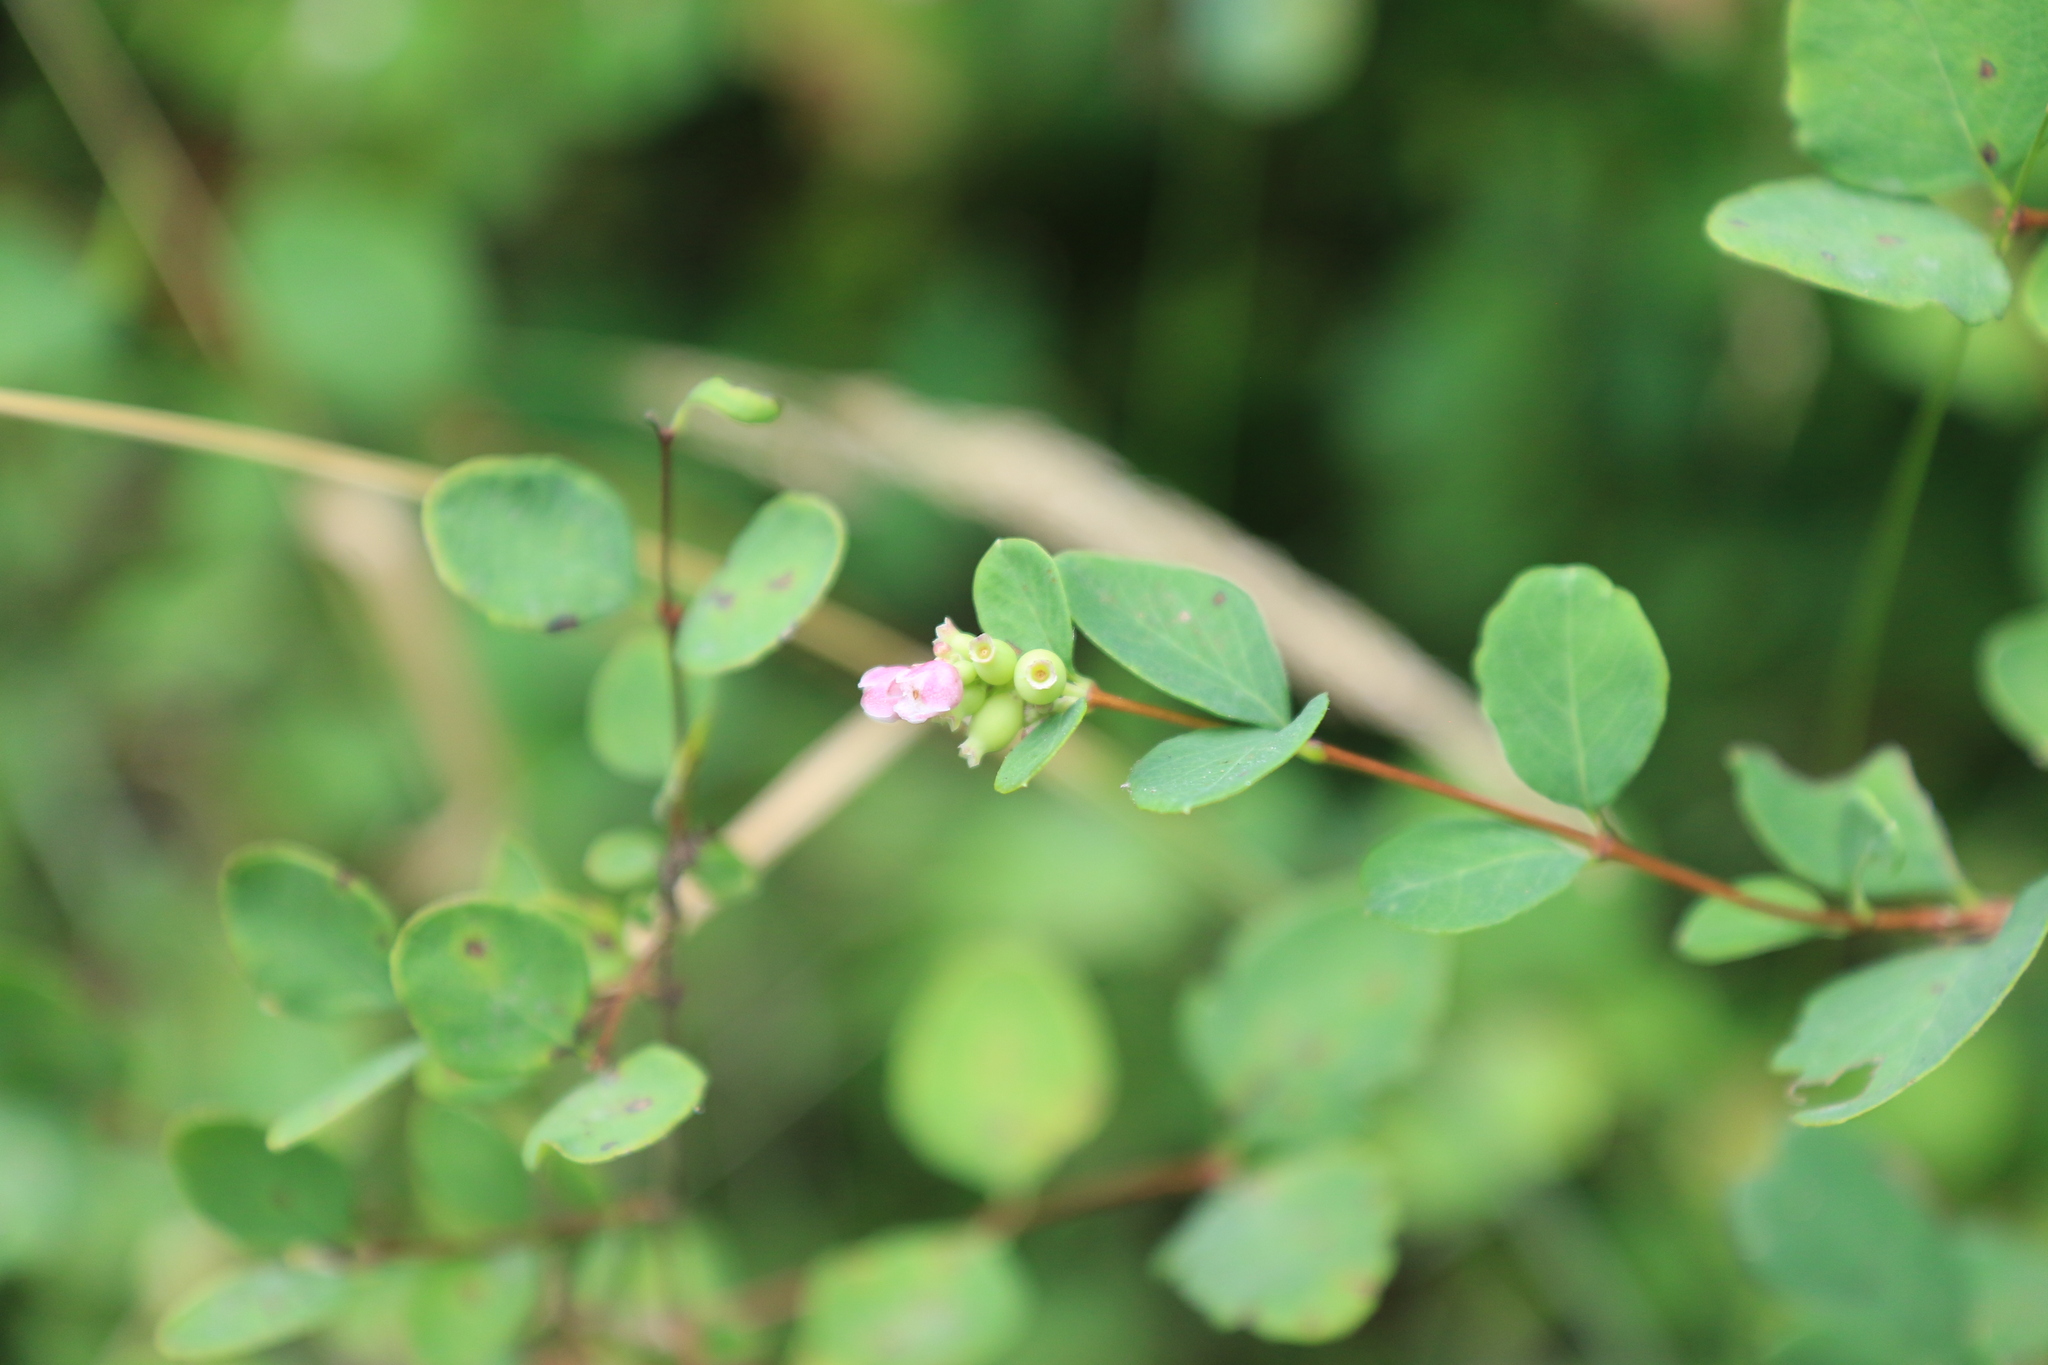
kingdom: Plantae
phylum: Tracheophyta
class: Magnoliopsida
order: Dipsacales
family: Caprifoliaceae
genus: Symphoricarpos
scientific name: Symphoricarpos albus
